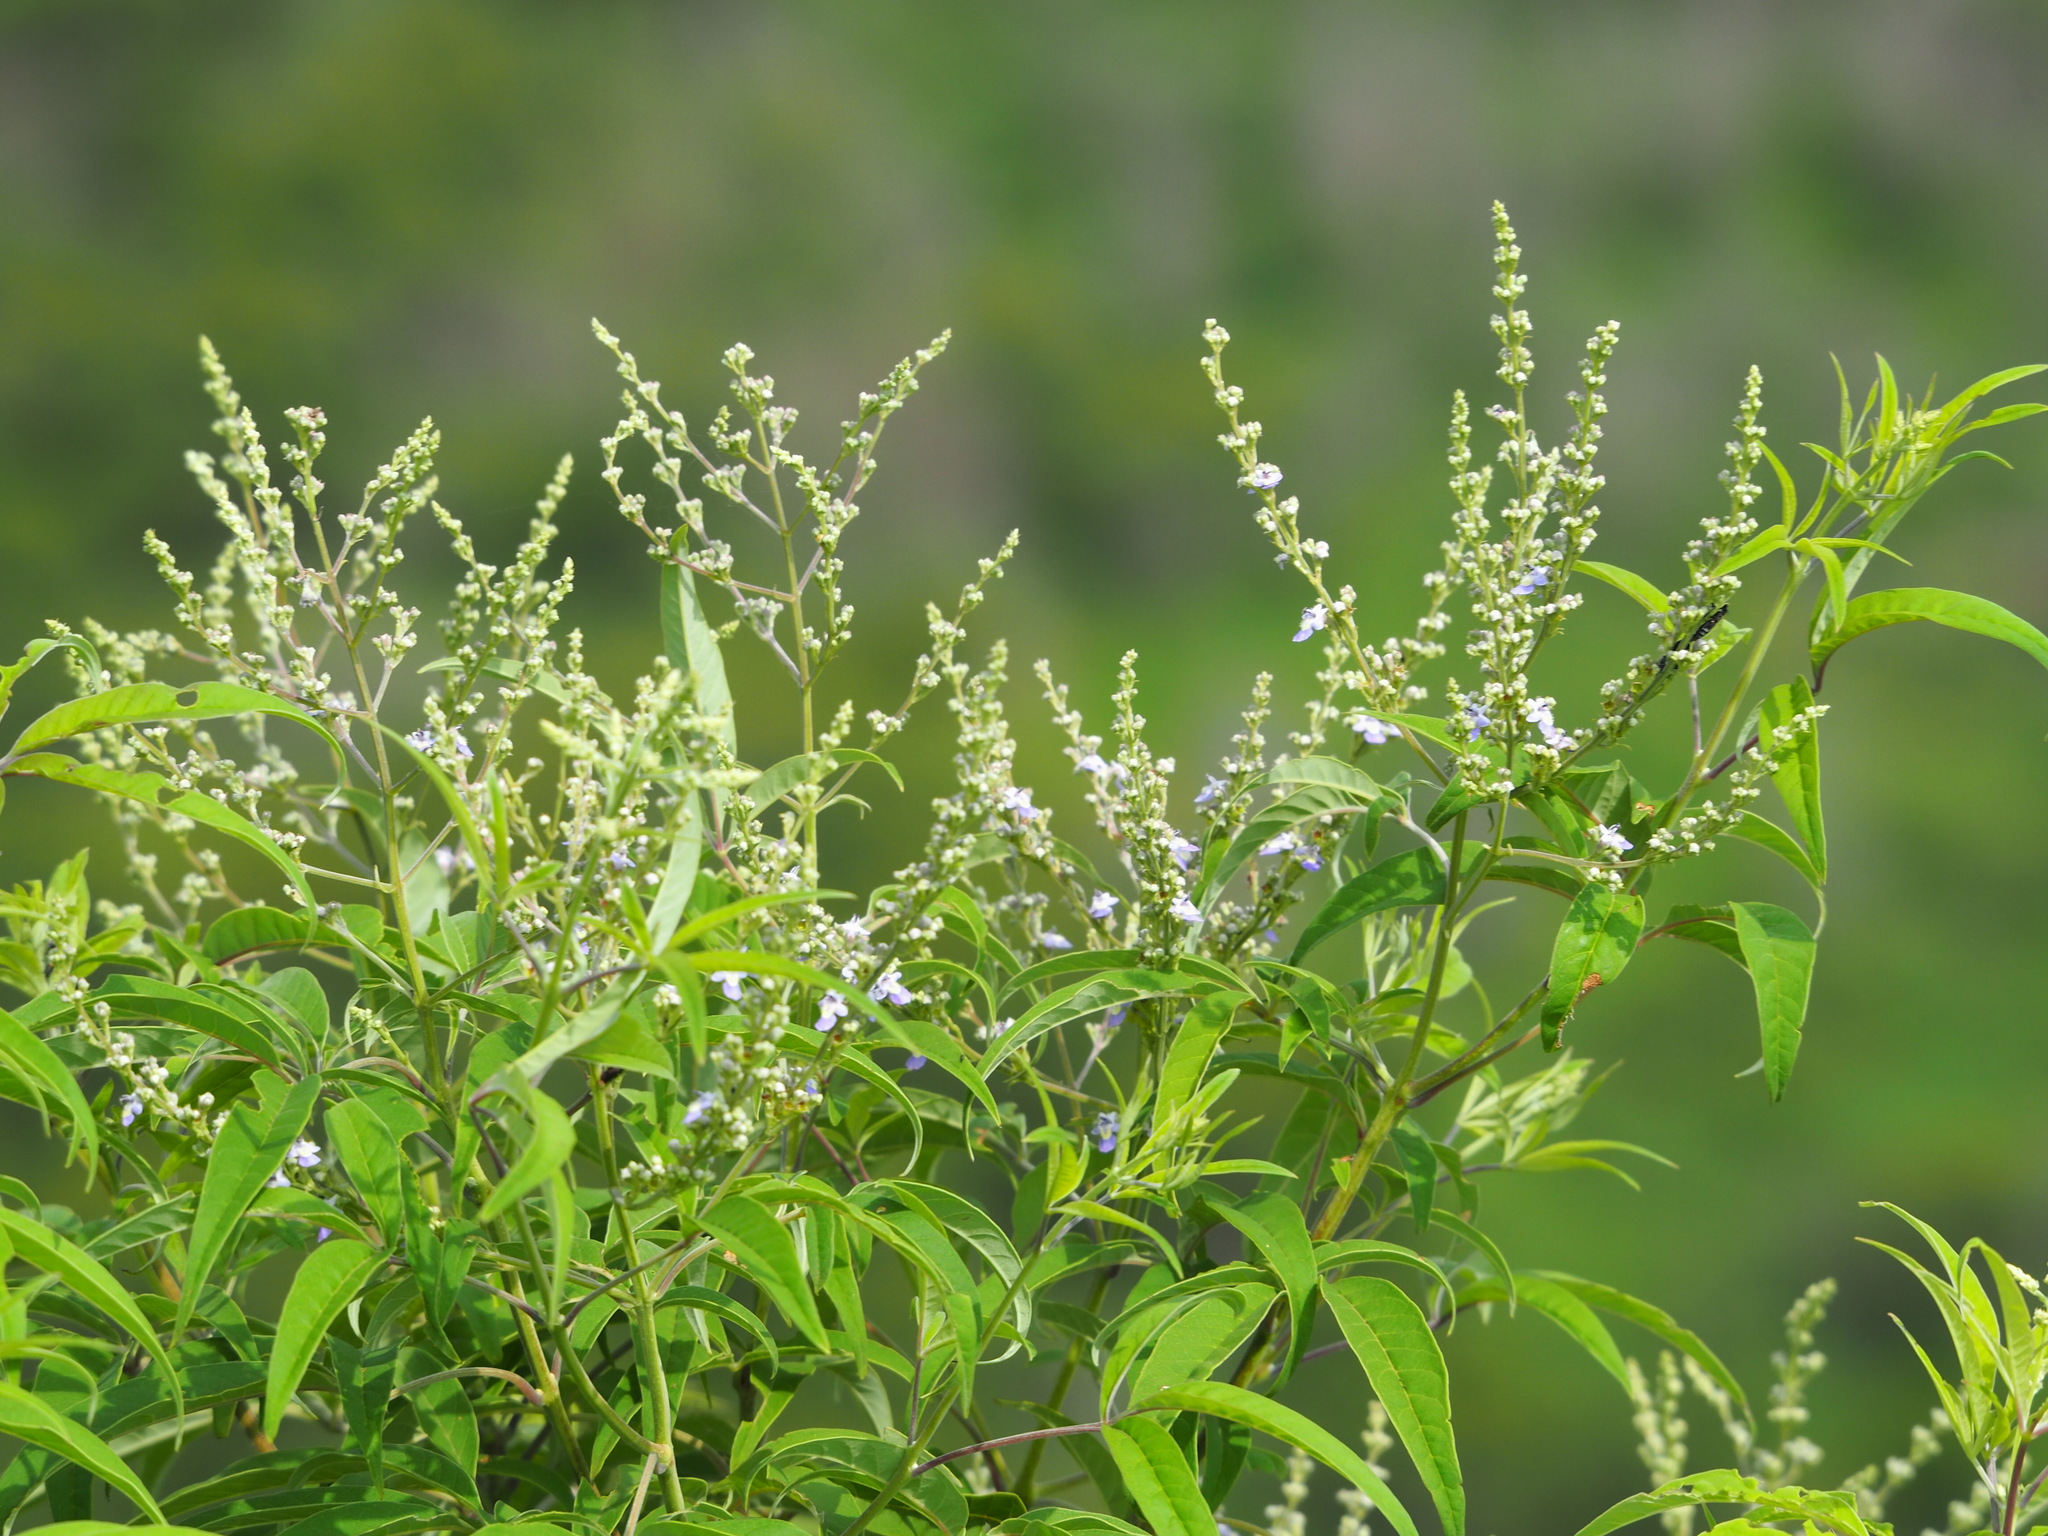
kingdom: Plantae
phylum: Tracheophyta
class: Magnoliopsida
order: Lamiales
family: Lamiaceae
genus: Vitex
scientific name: Vitex negundo
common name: Chinese chastetree
